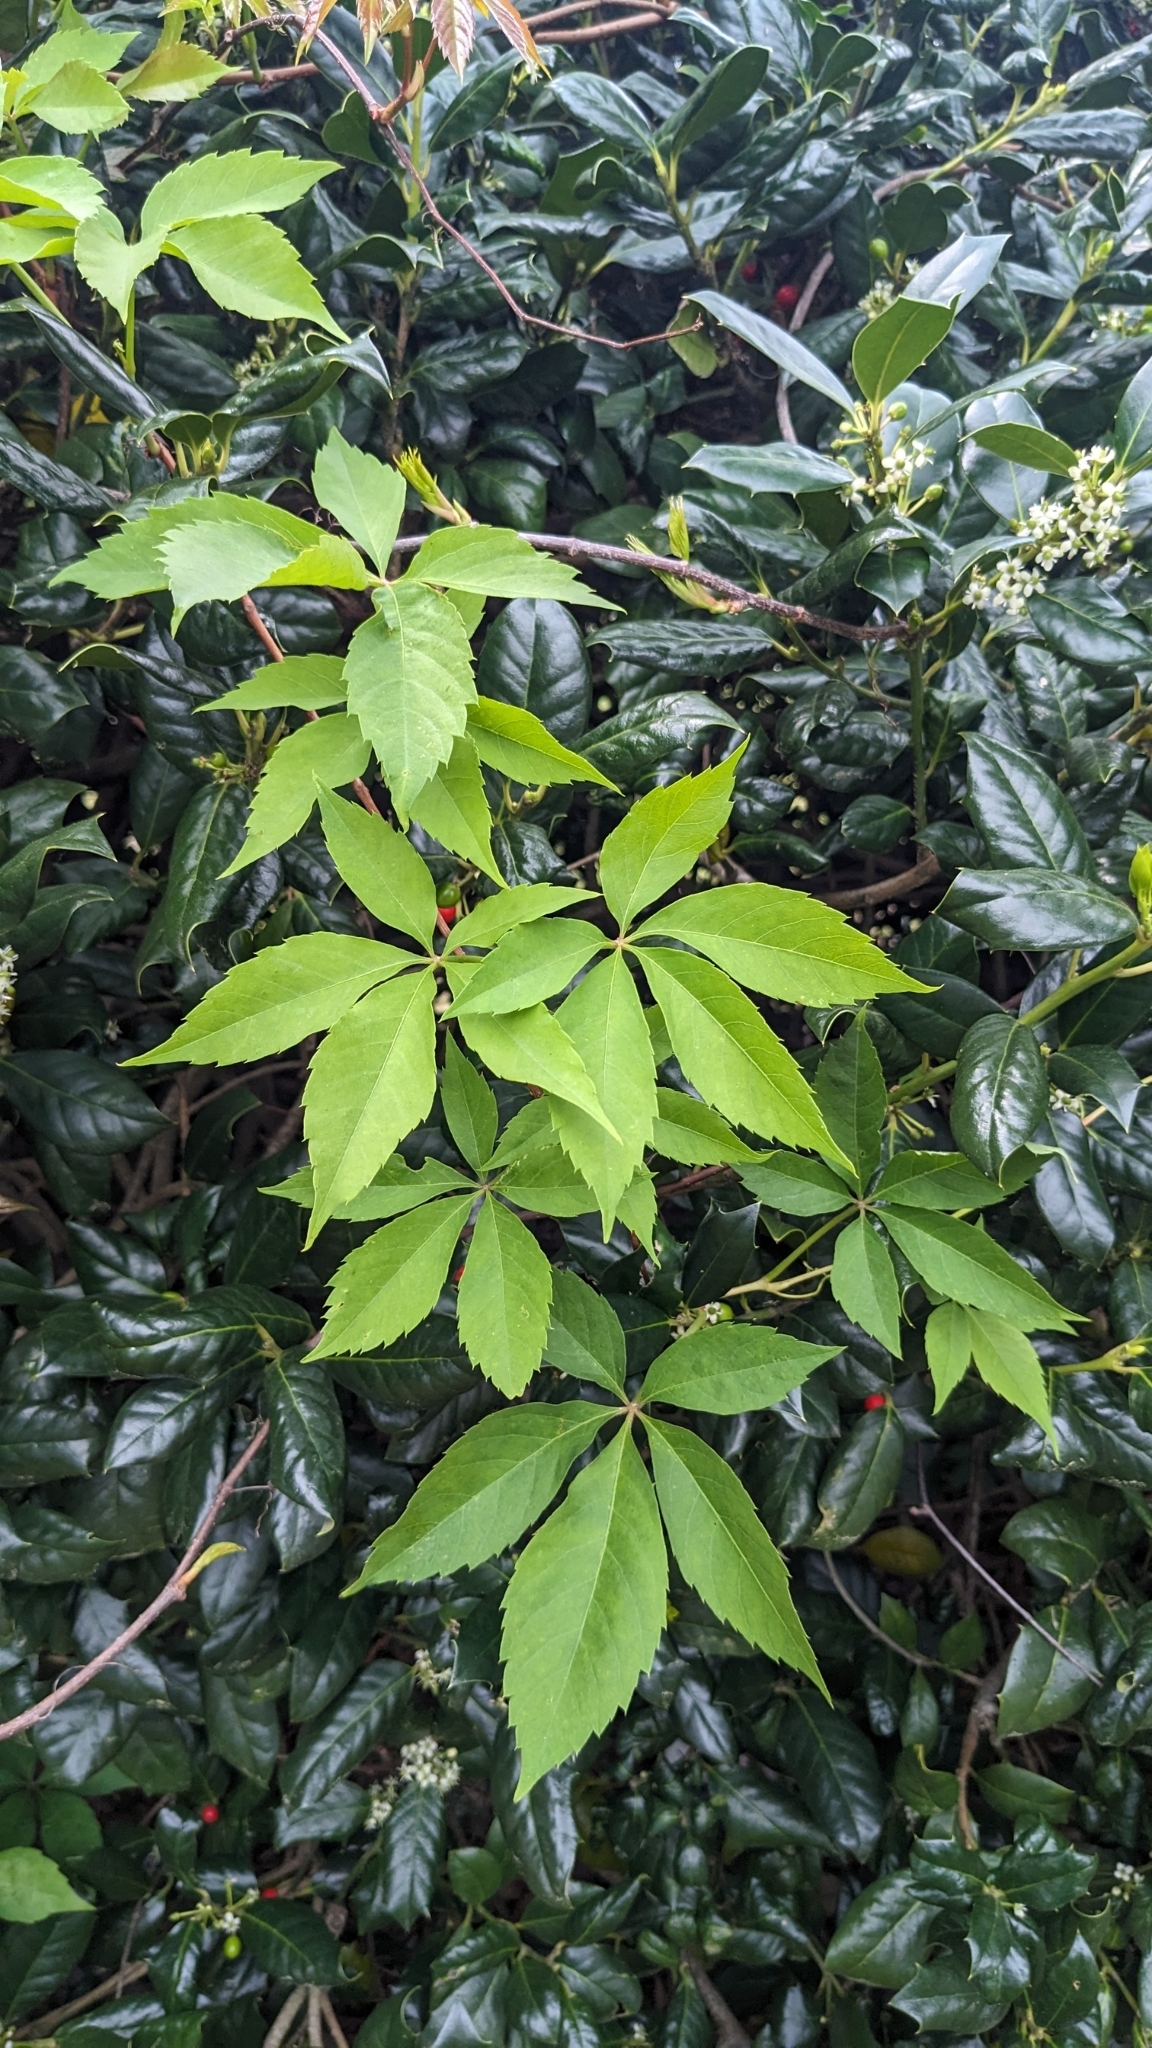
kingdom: Plantae
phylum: Tracheophyta
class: Magnoliopsida
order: Vitales
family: Vitaceae
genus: Parthenocissus
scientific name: Parthenocissus quinquefolia
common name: Virginia-creeper
